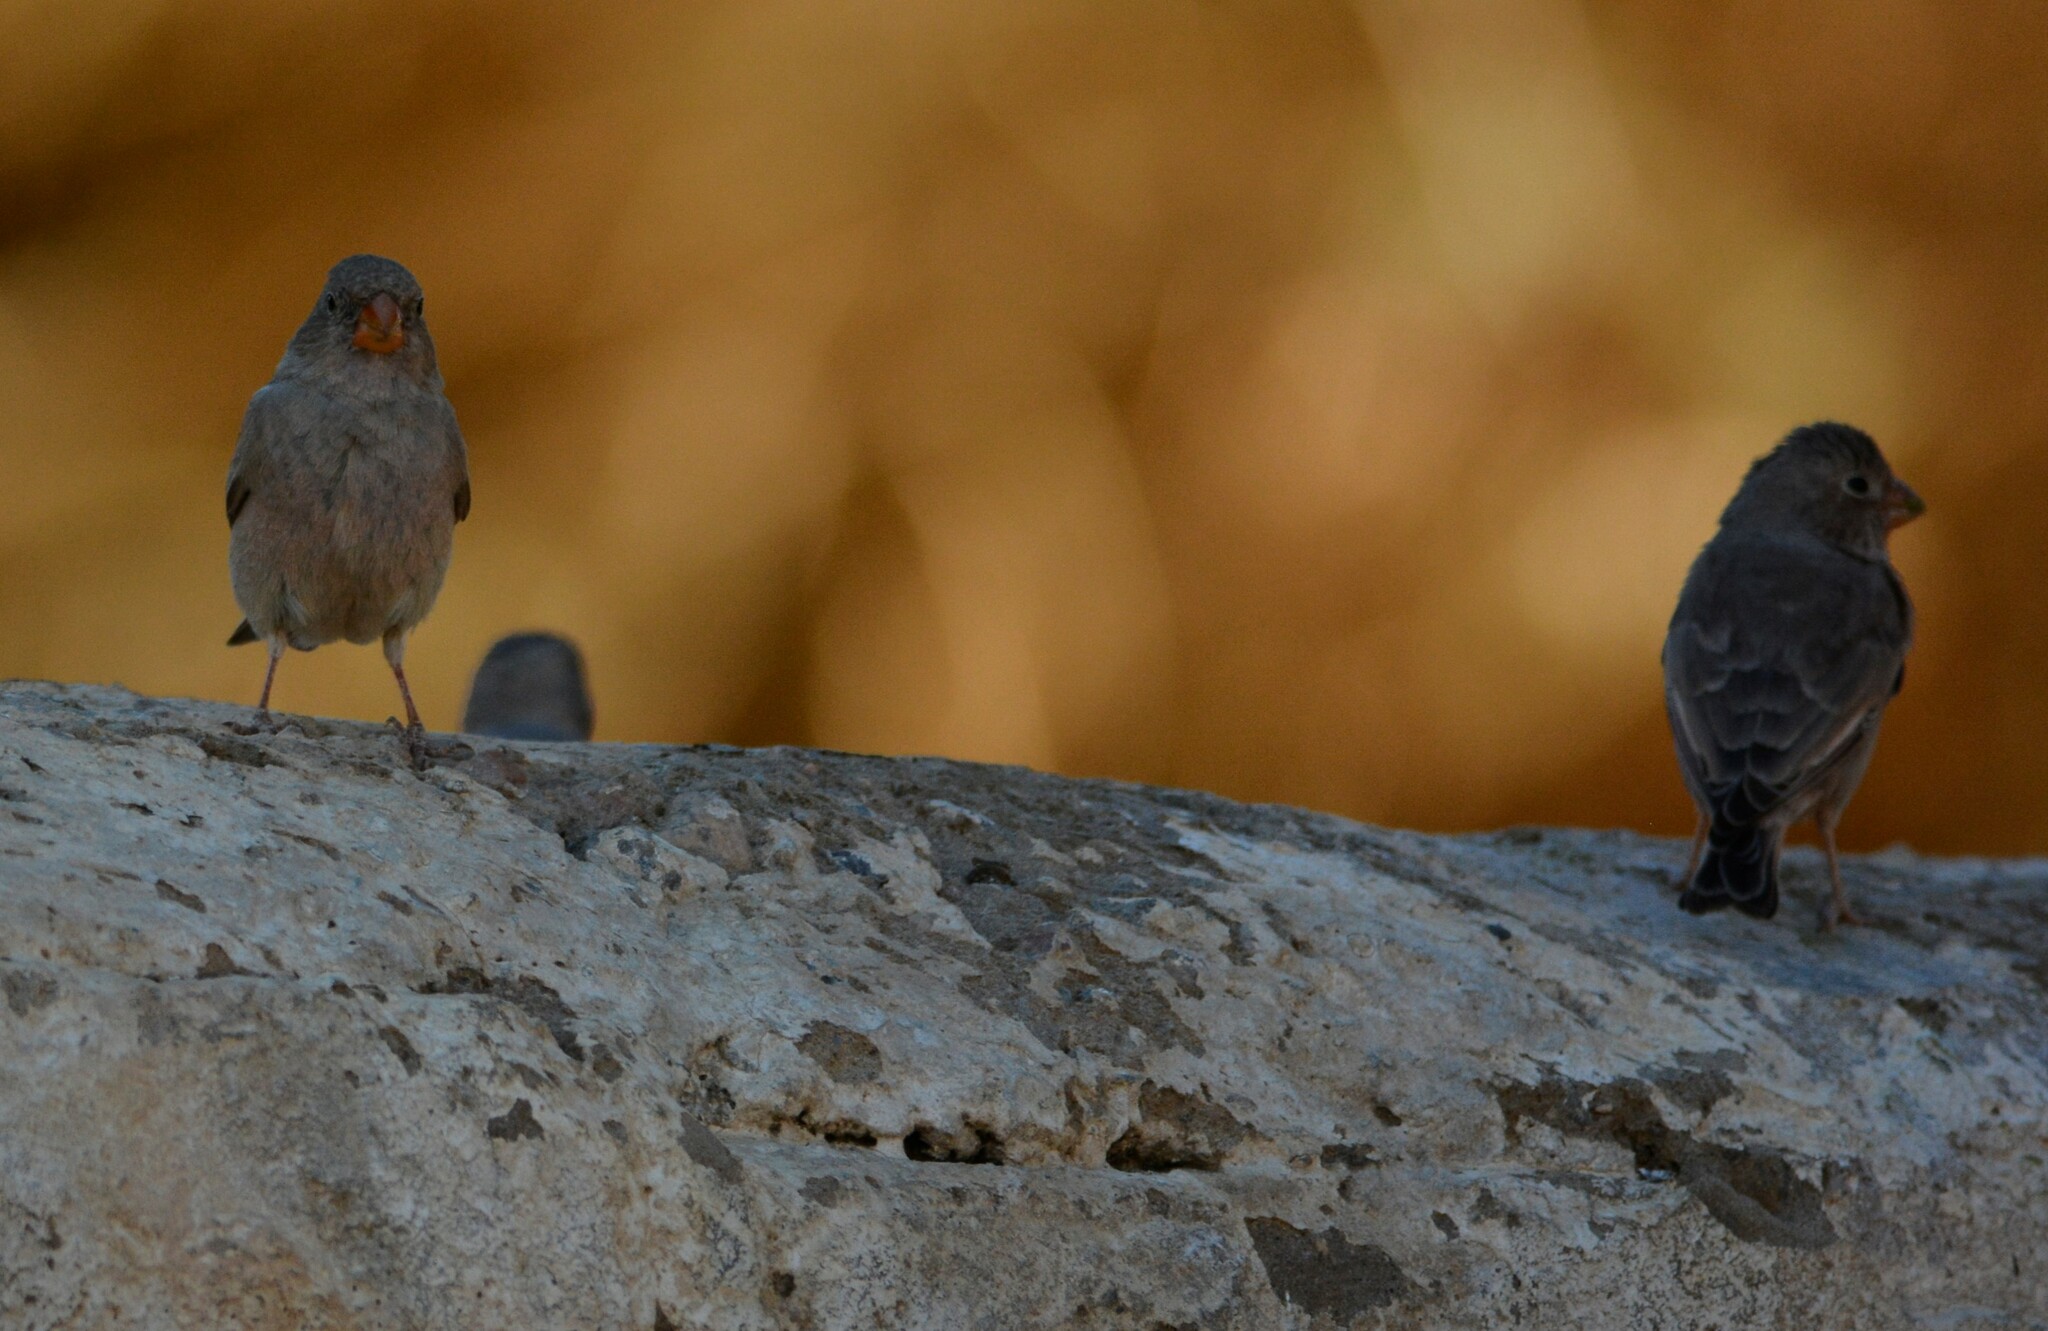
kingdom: Animalia
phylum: Chordata
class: Aves
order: Passeriformes
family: Fringillidae
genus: Bucanetes
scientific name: Bucanetes githagineus
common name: Trumpeter finch
